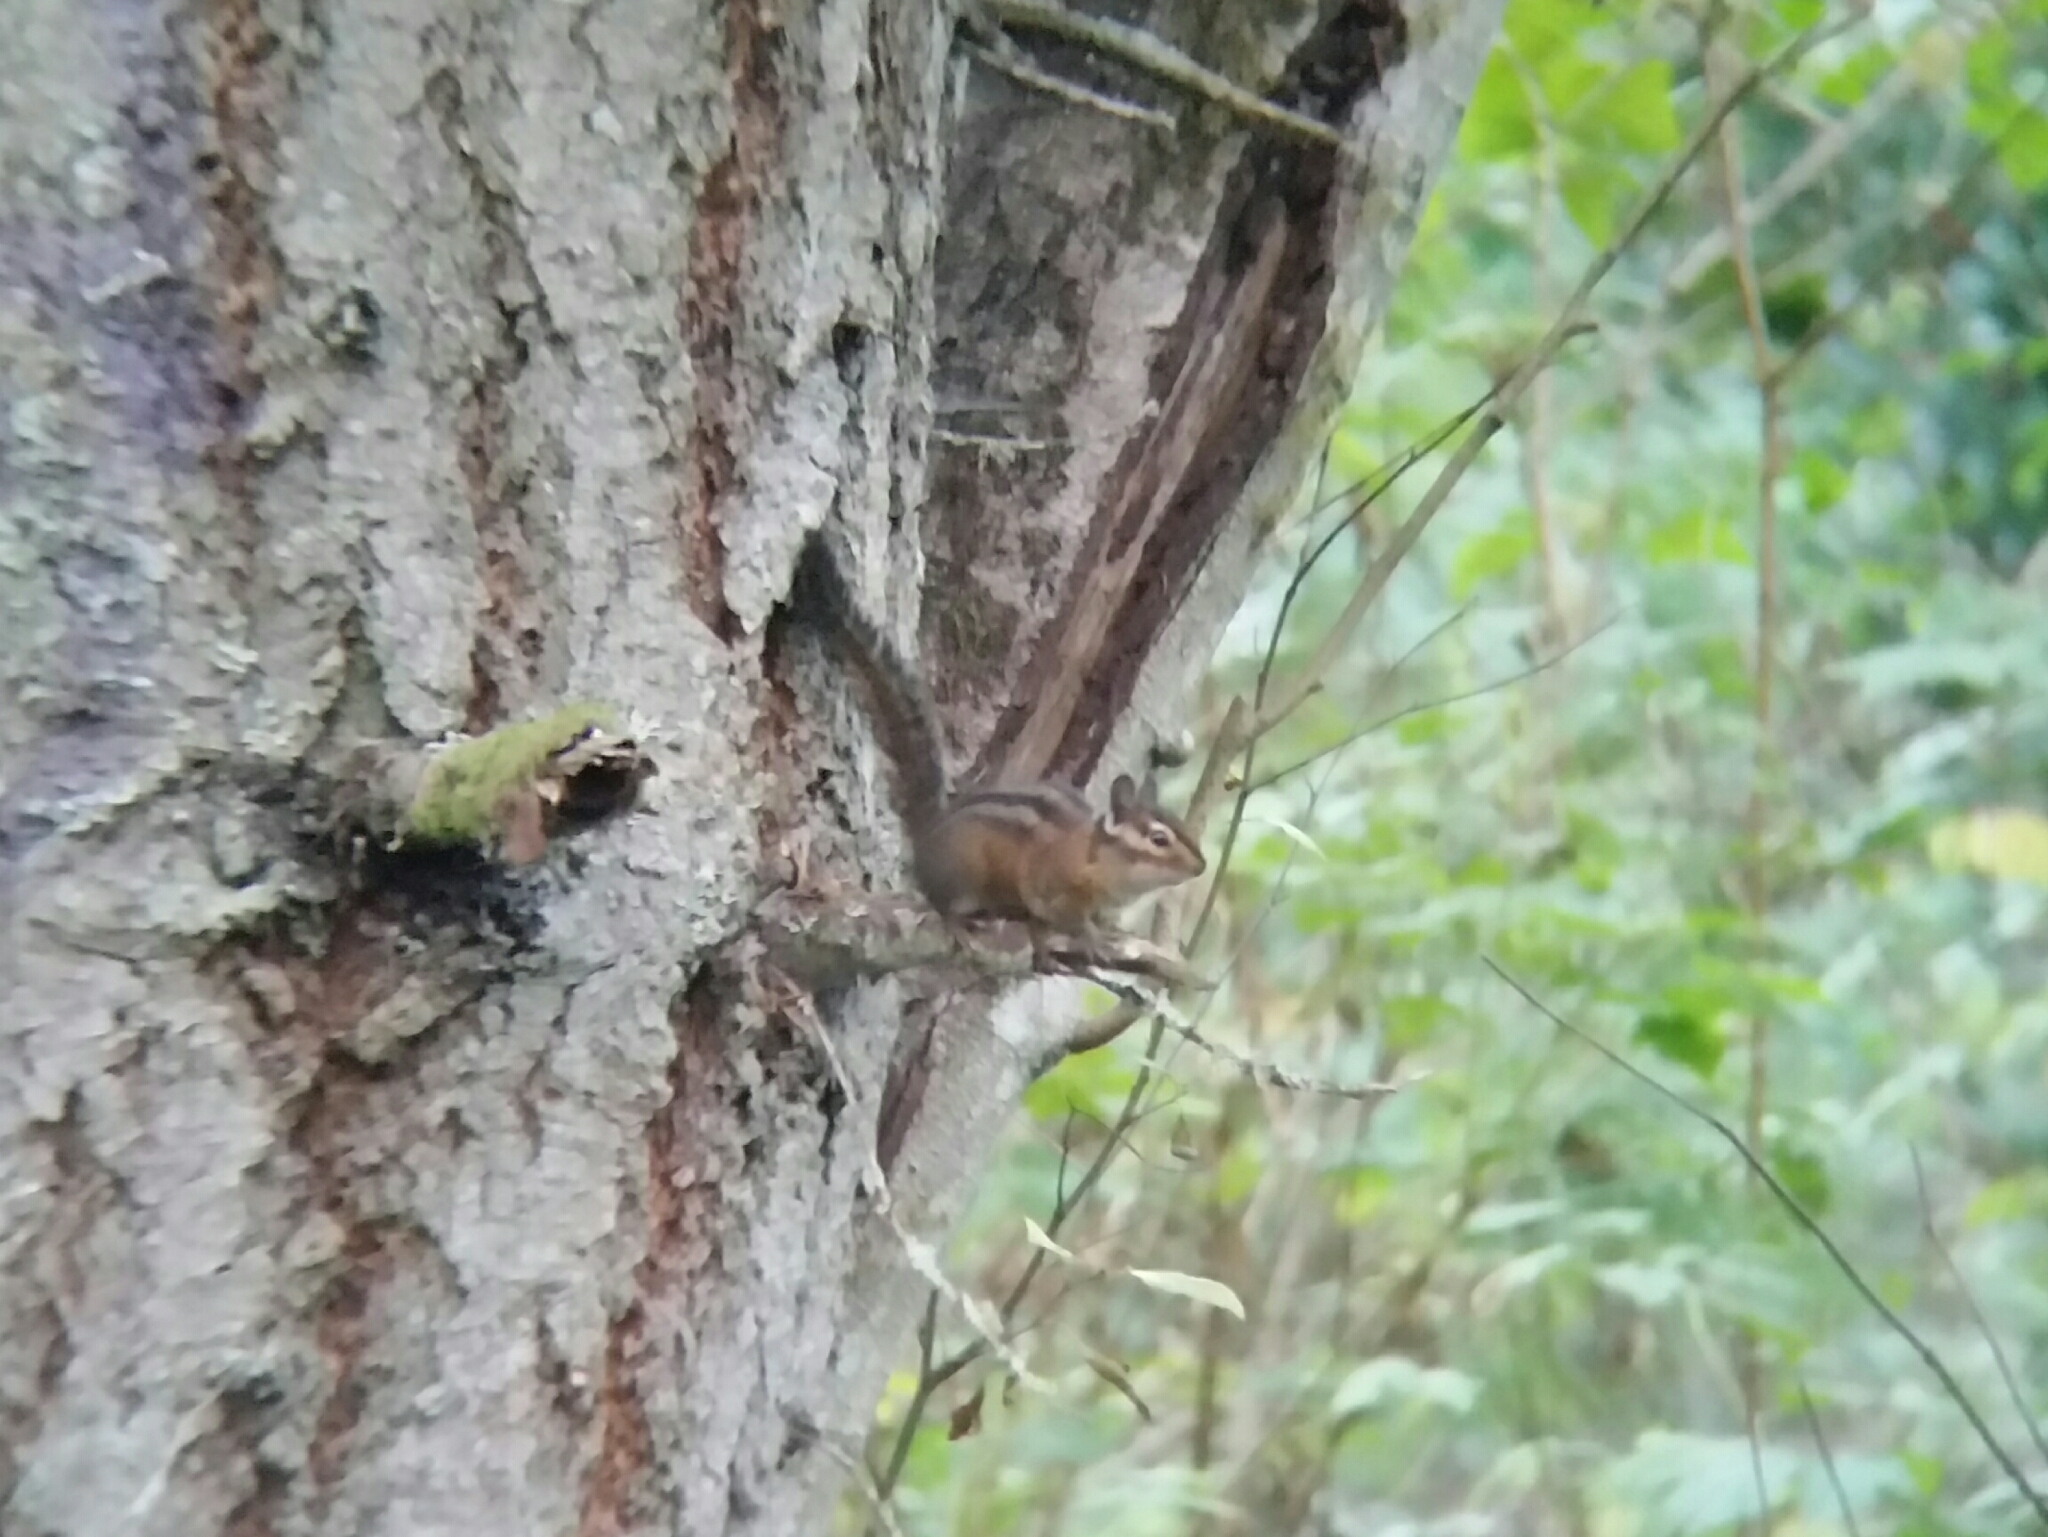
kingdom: Animalia
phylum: Chordata
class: Mammalia
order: Rodentia
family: Sciuridae
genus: Tamias
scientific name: Tamias townsendii
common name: Townsend's chipmunk
